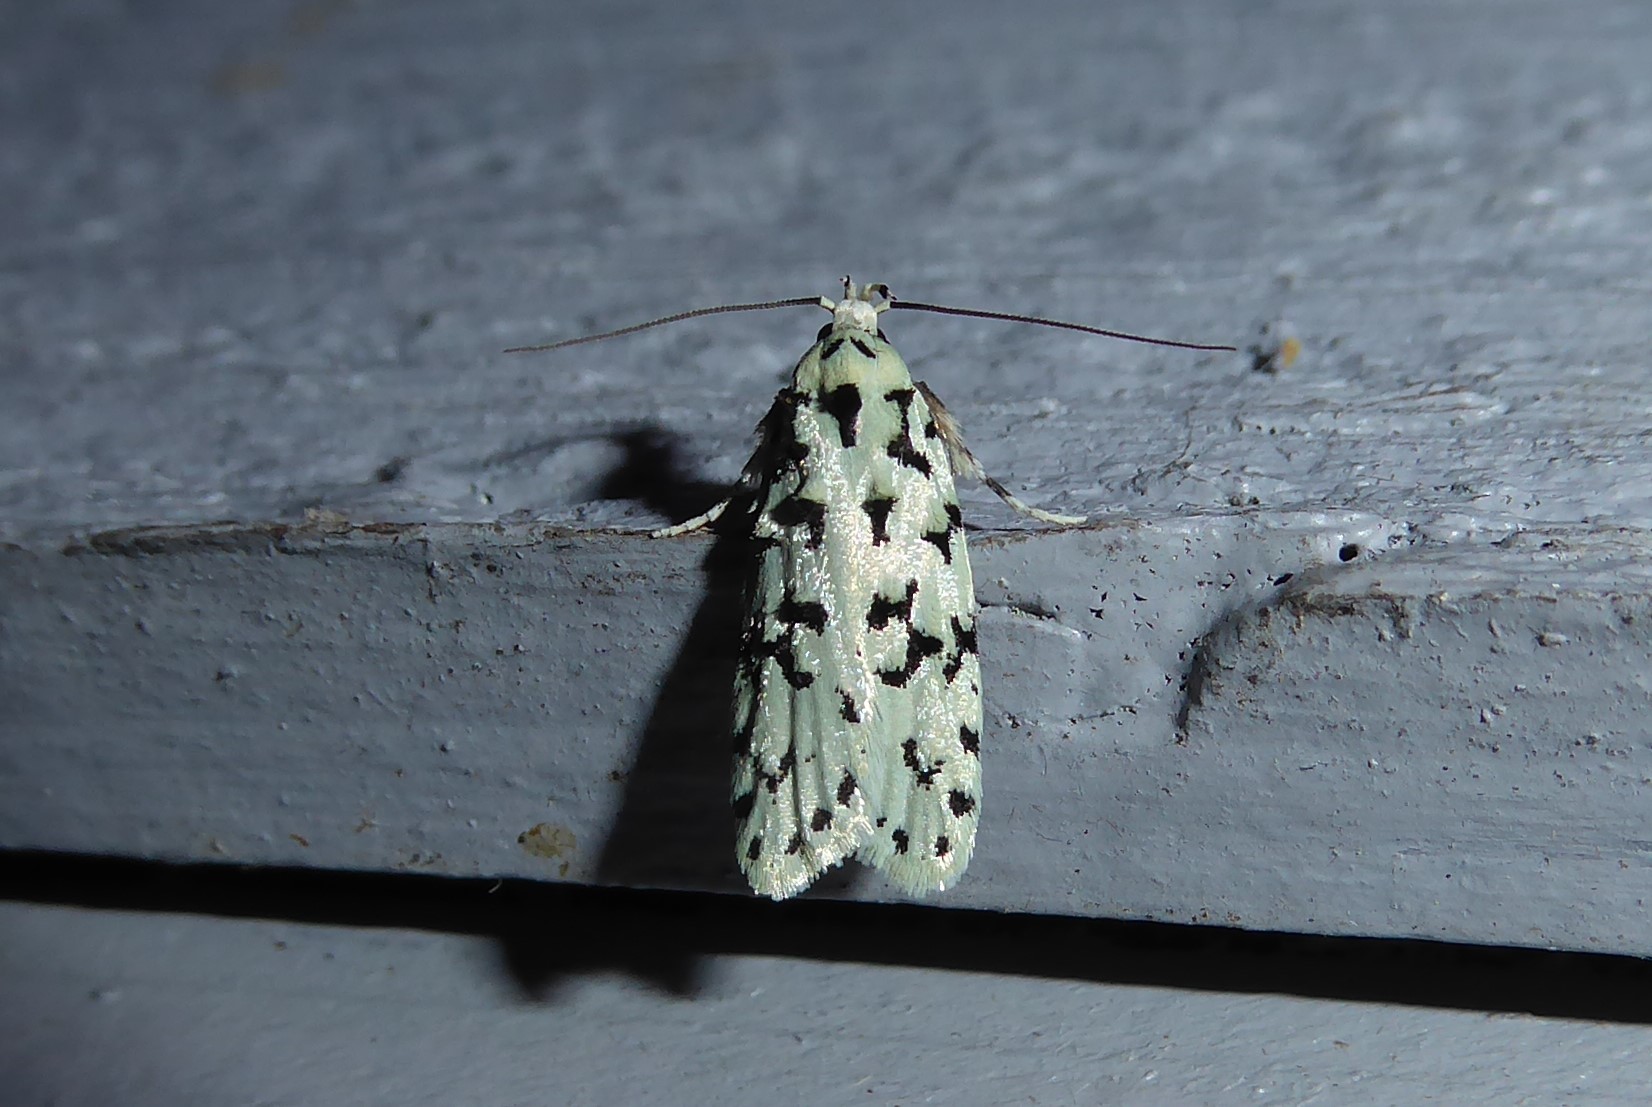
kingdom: Animalia
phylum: Arthropoda
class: Insecta
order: Lepidoptera
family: Oecophoridae
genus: Izatha
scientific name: Izatha huttoni
